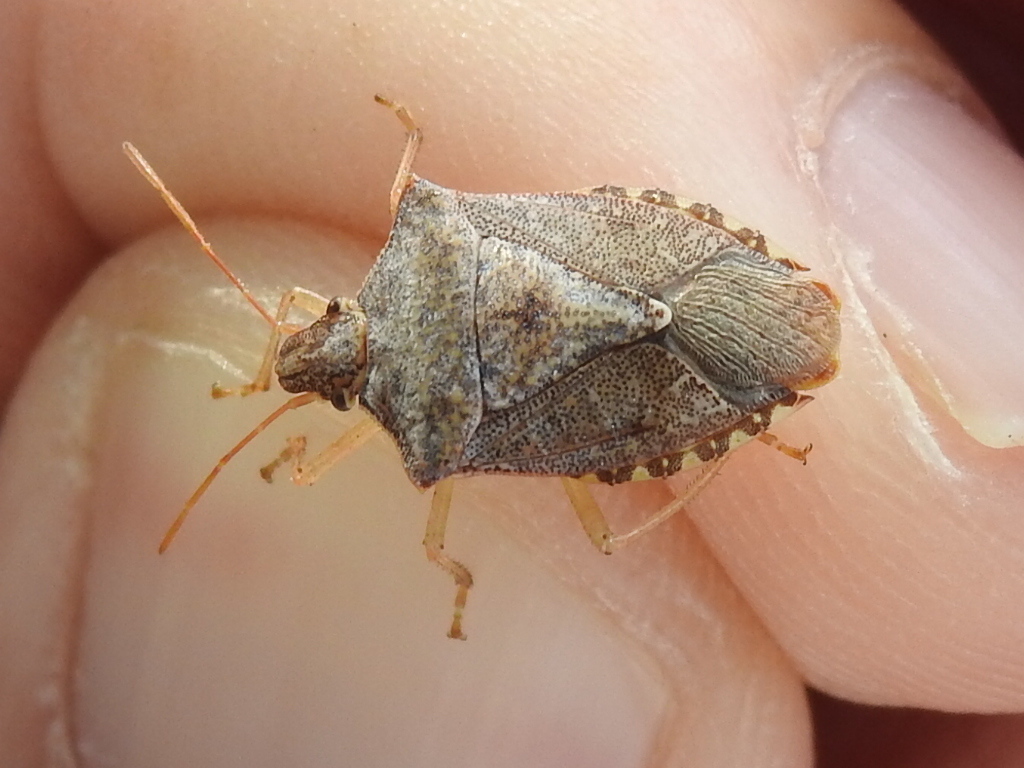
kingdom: Animalia
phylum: Arthropoda
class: Insecta
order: Hemiptera
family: Pentatomidae
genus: Euschistus
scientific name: Euschistus servus
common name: Brown stink bug
